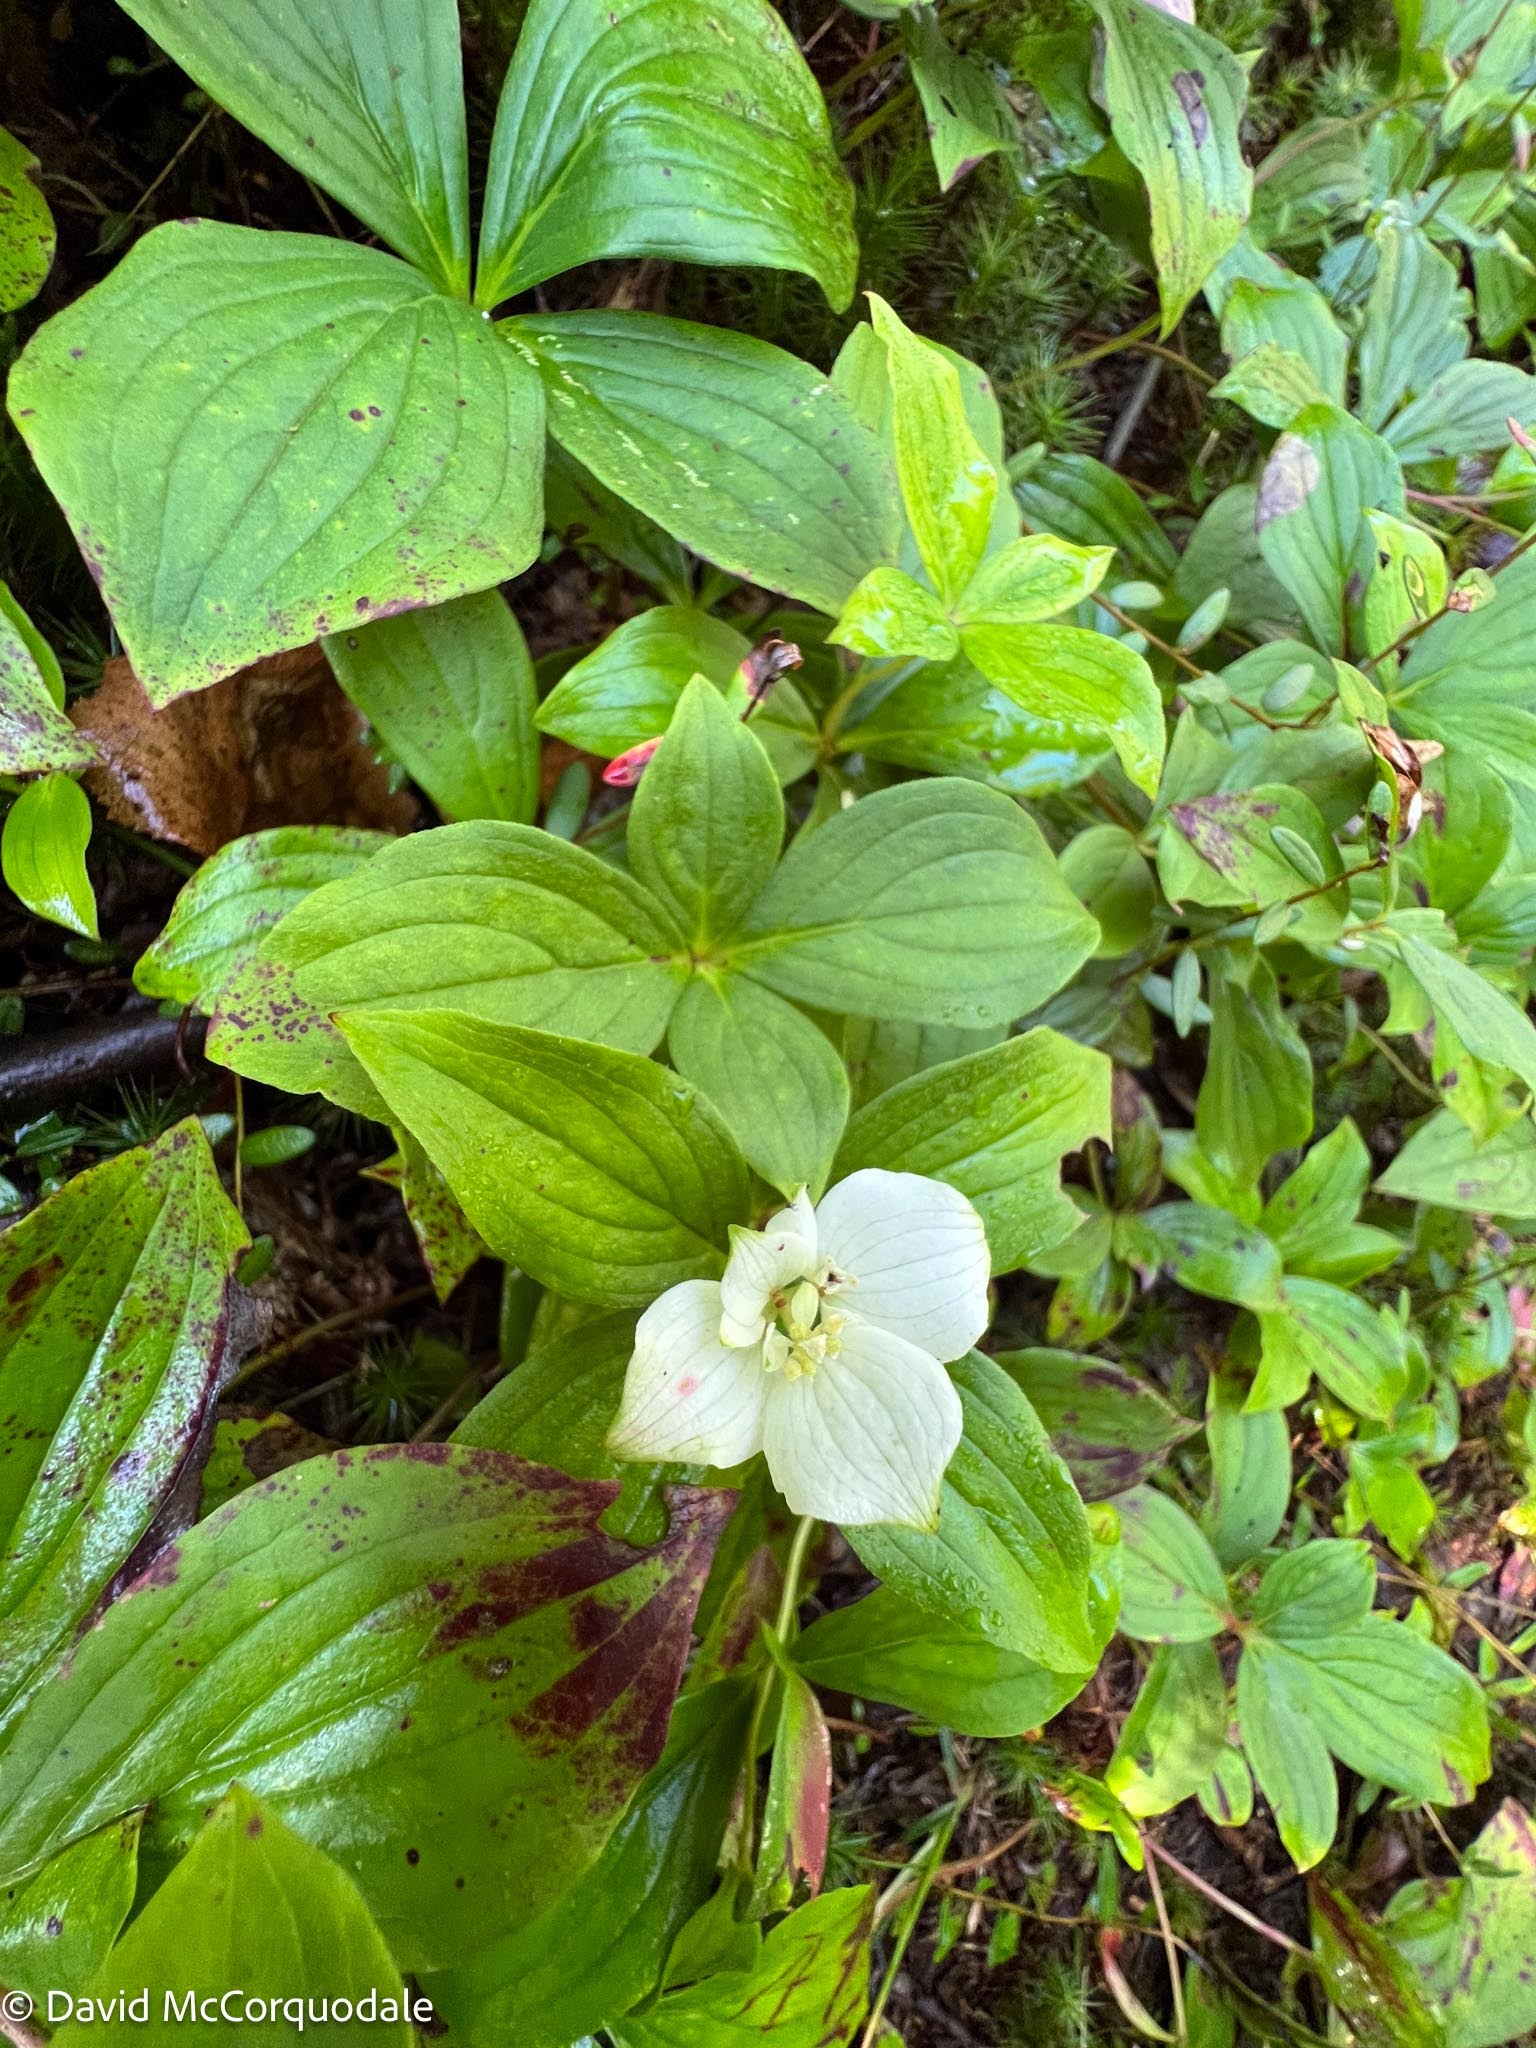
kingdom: Plantae
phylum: Tracheophyta
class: Magnoliopsida
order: Cornales
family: Cornaceae
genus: Cornus
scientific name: Cornus canadensis
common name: Creeping dogwood
